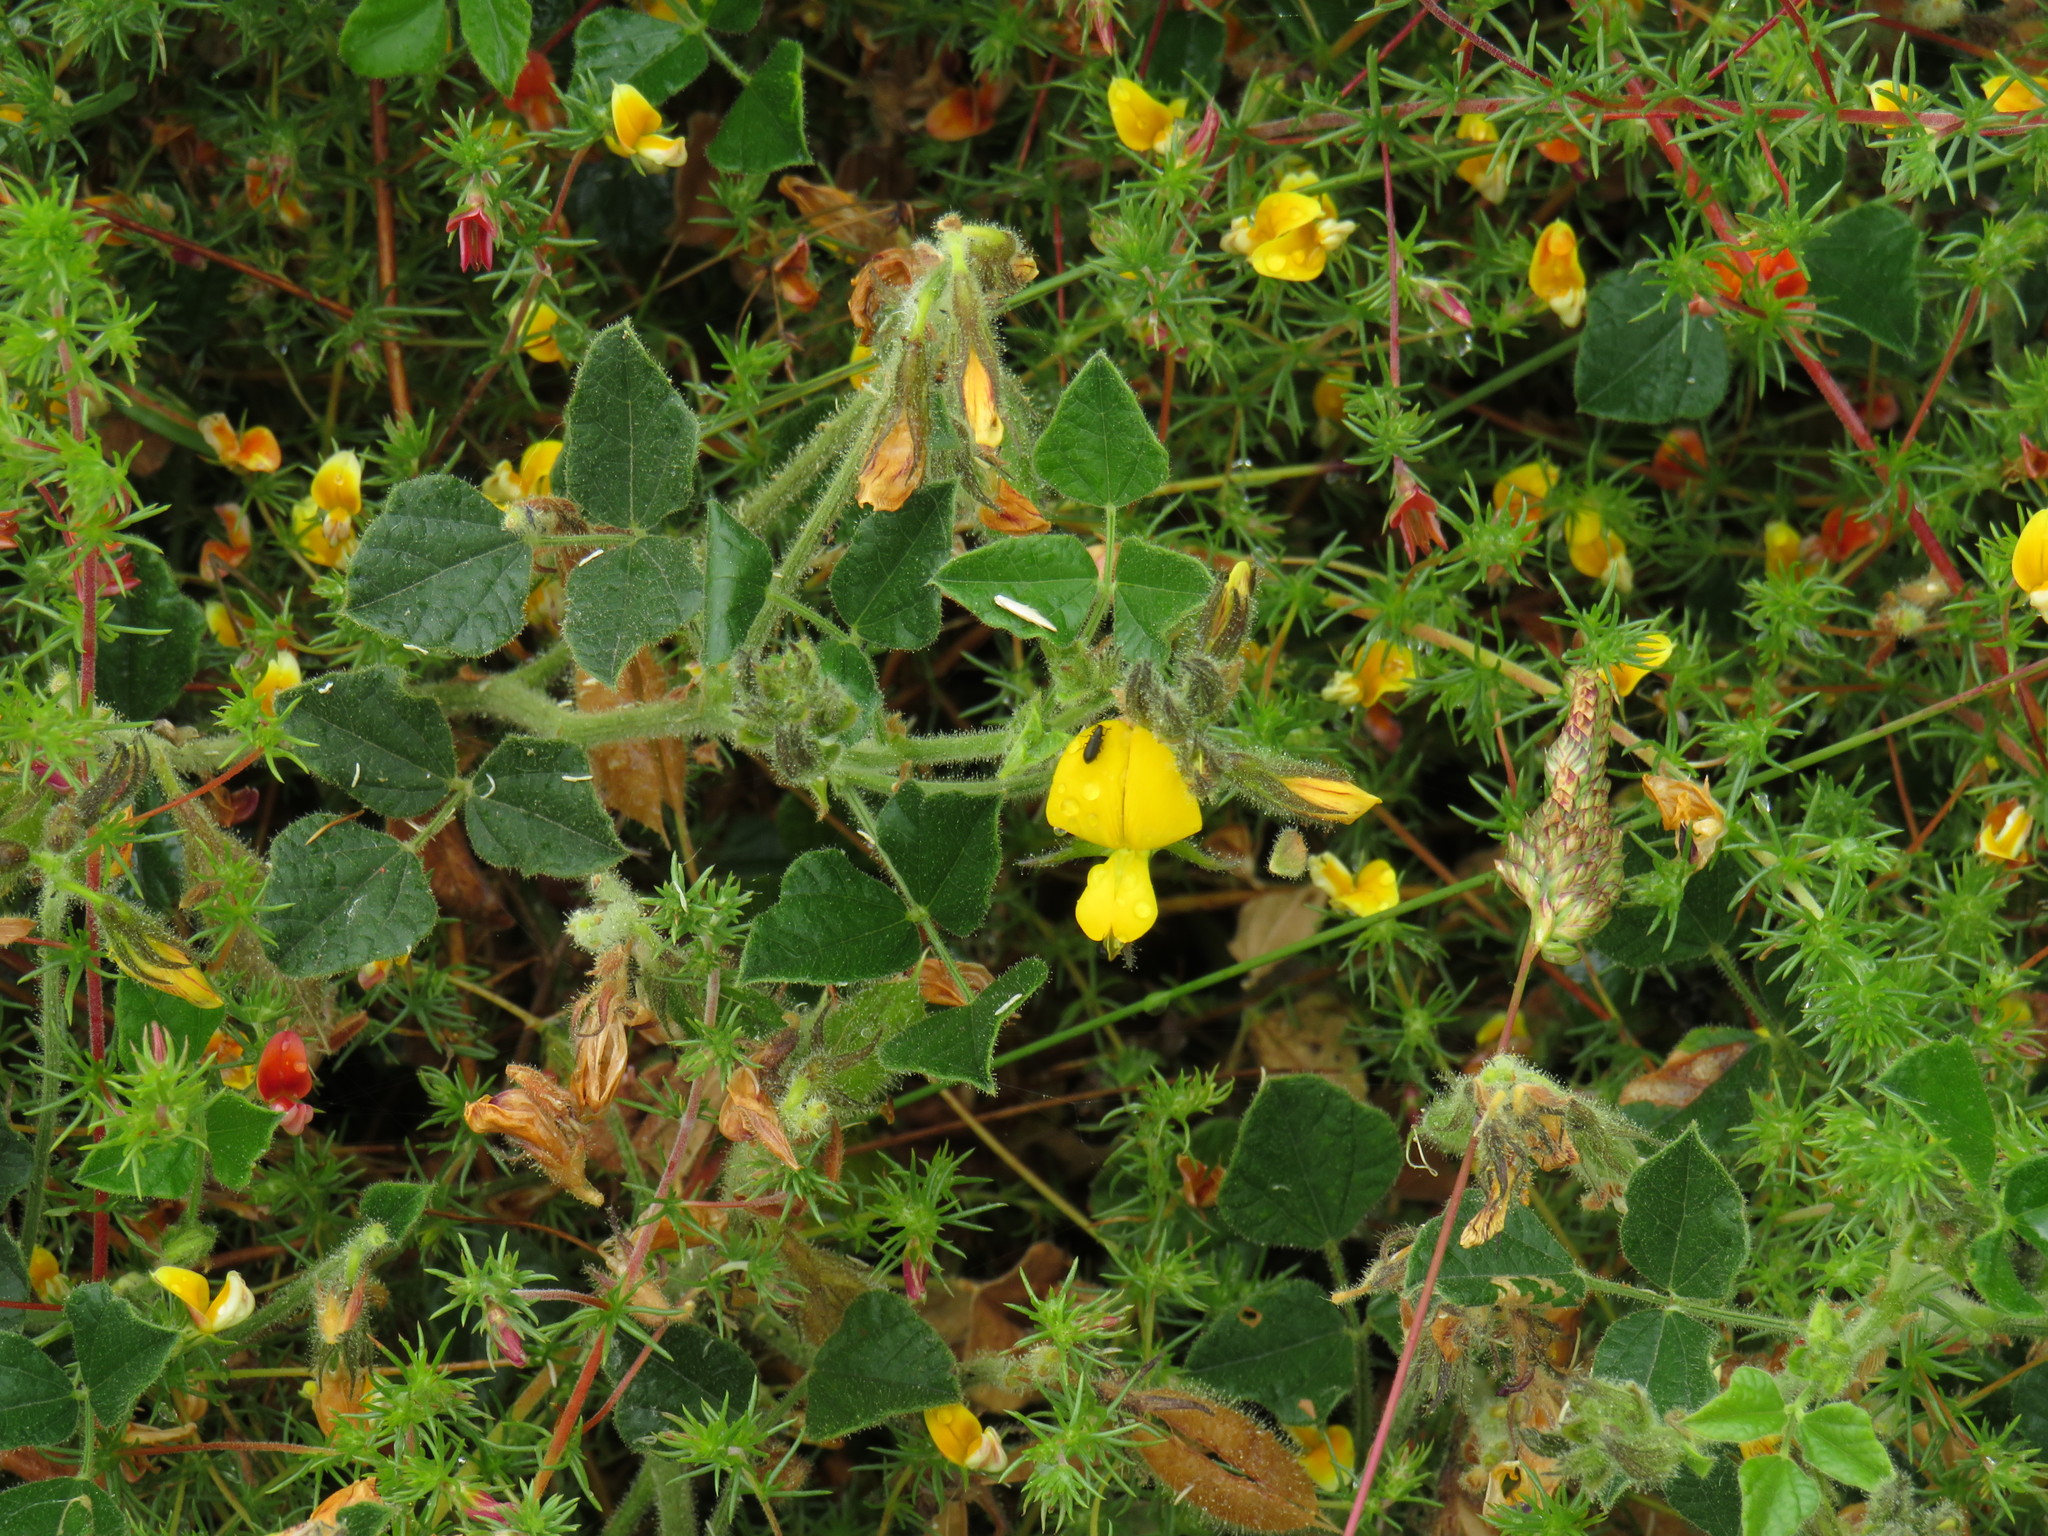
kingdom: Plantae
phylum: Tracheophyta
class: Magnoliopsida
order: Fabales
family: Fabaceae
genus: Bolusafra
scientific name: Bolusafra bituminosa
